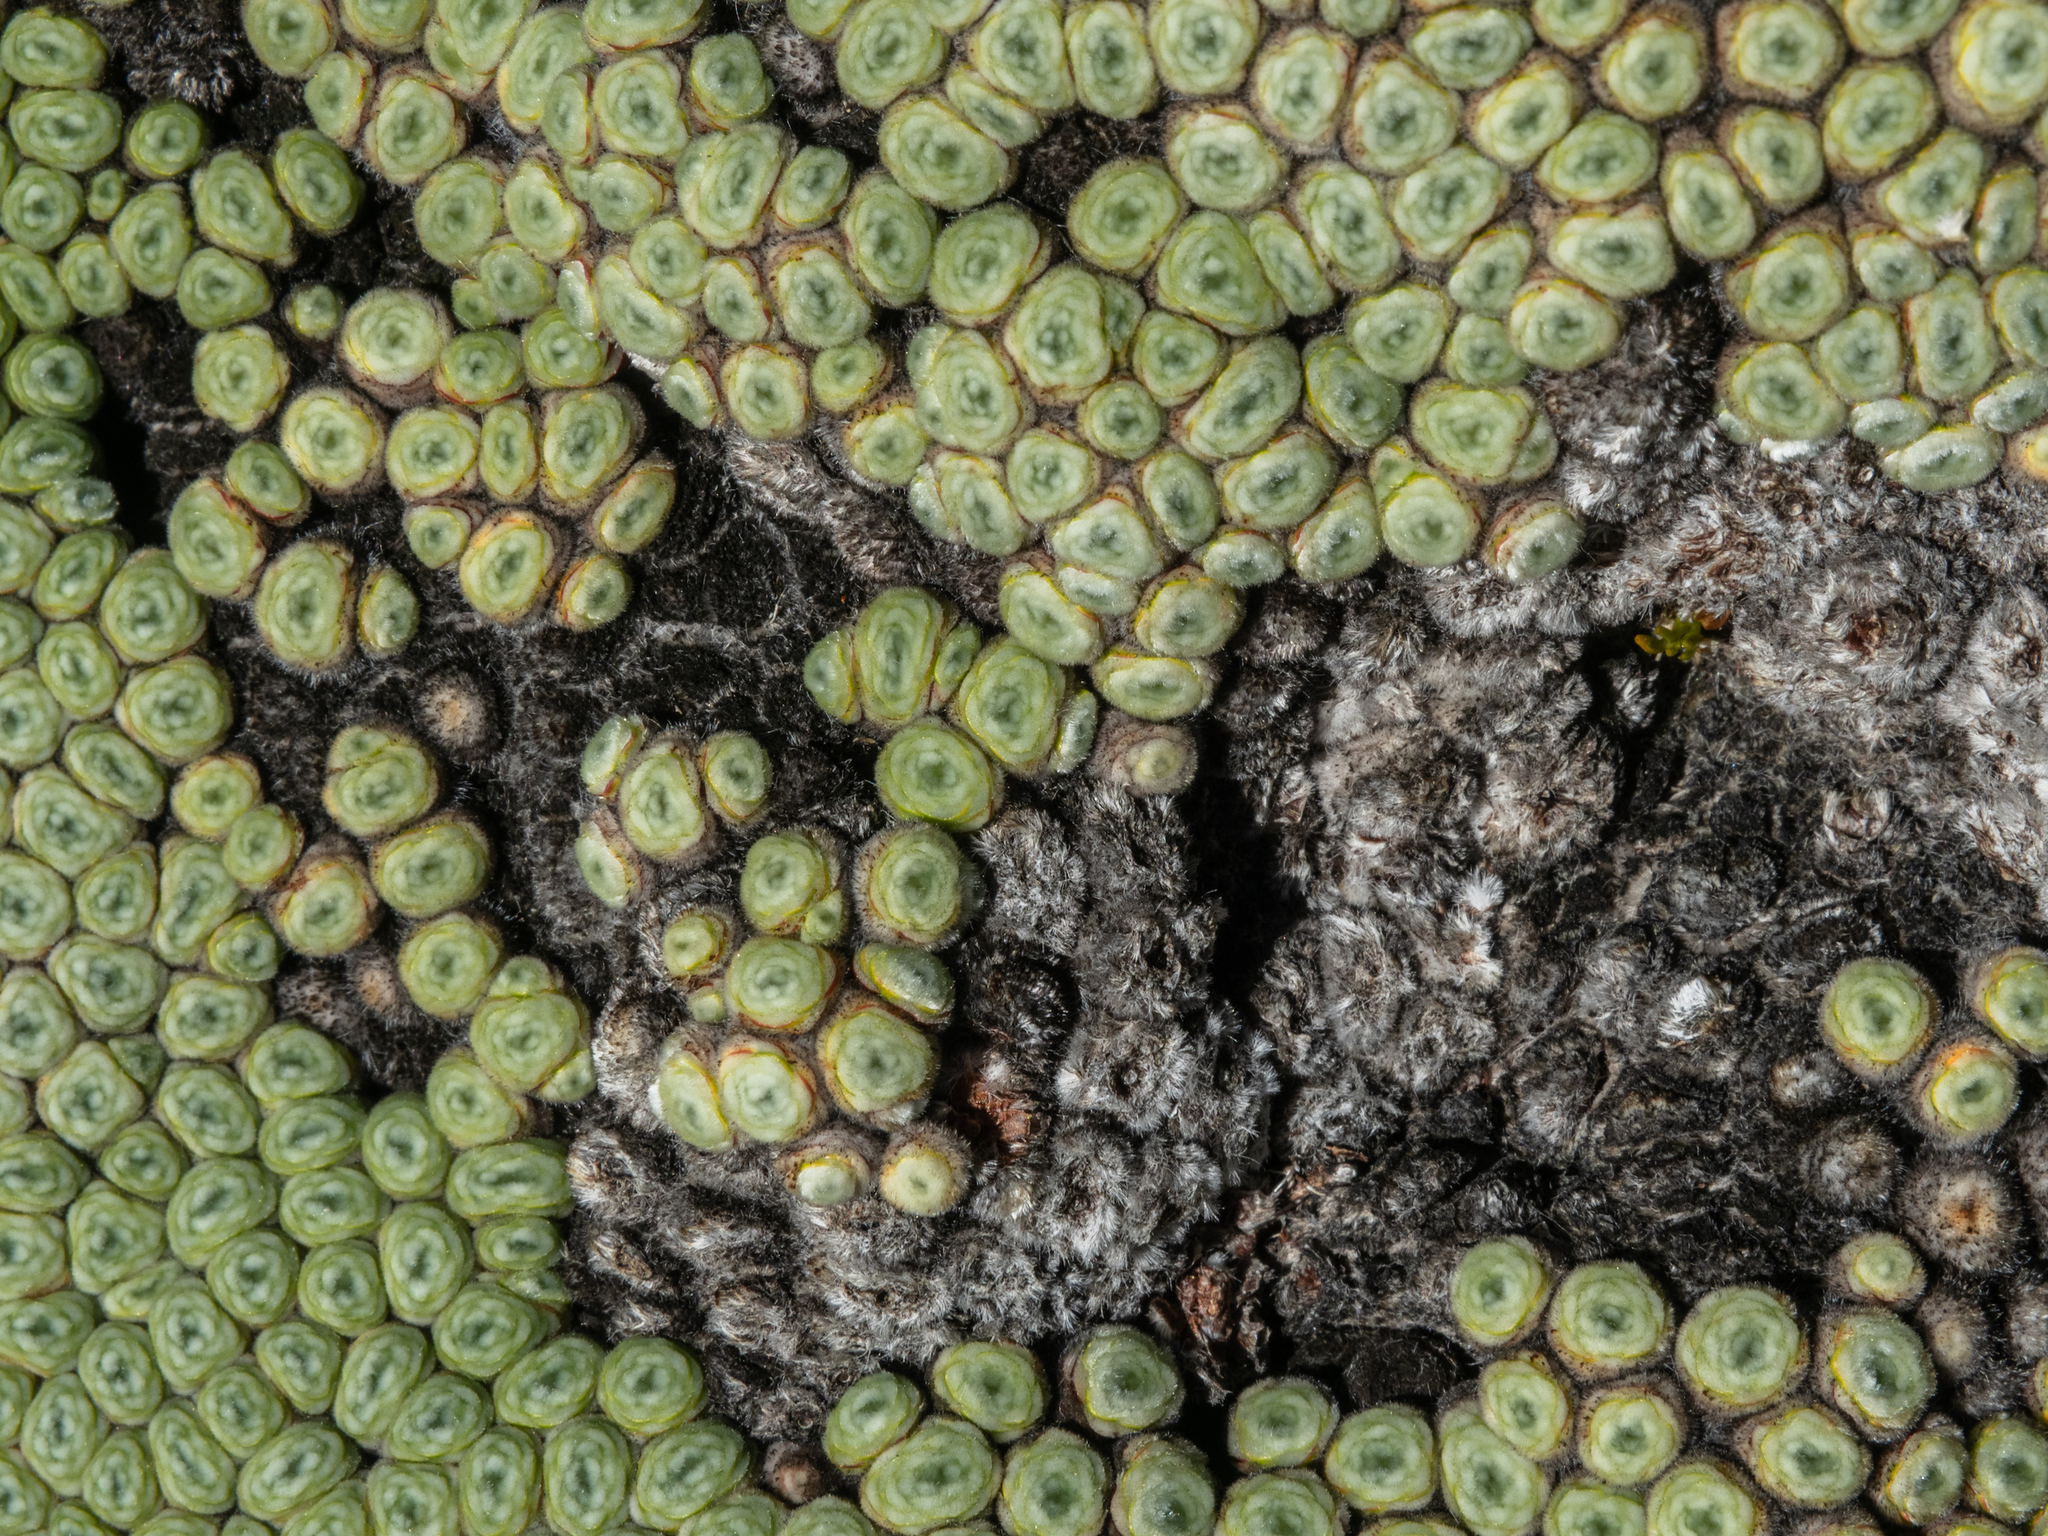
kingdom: Plantae
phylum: Tracheophyta
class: Magnoliopsida
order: Asterales
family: Asteraceae
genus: Raoulia
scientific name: Raoulia buchananii
